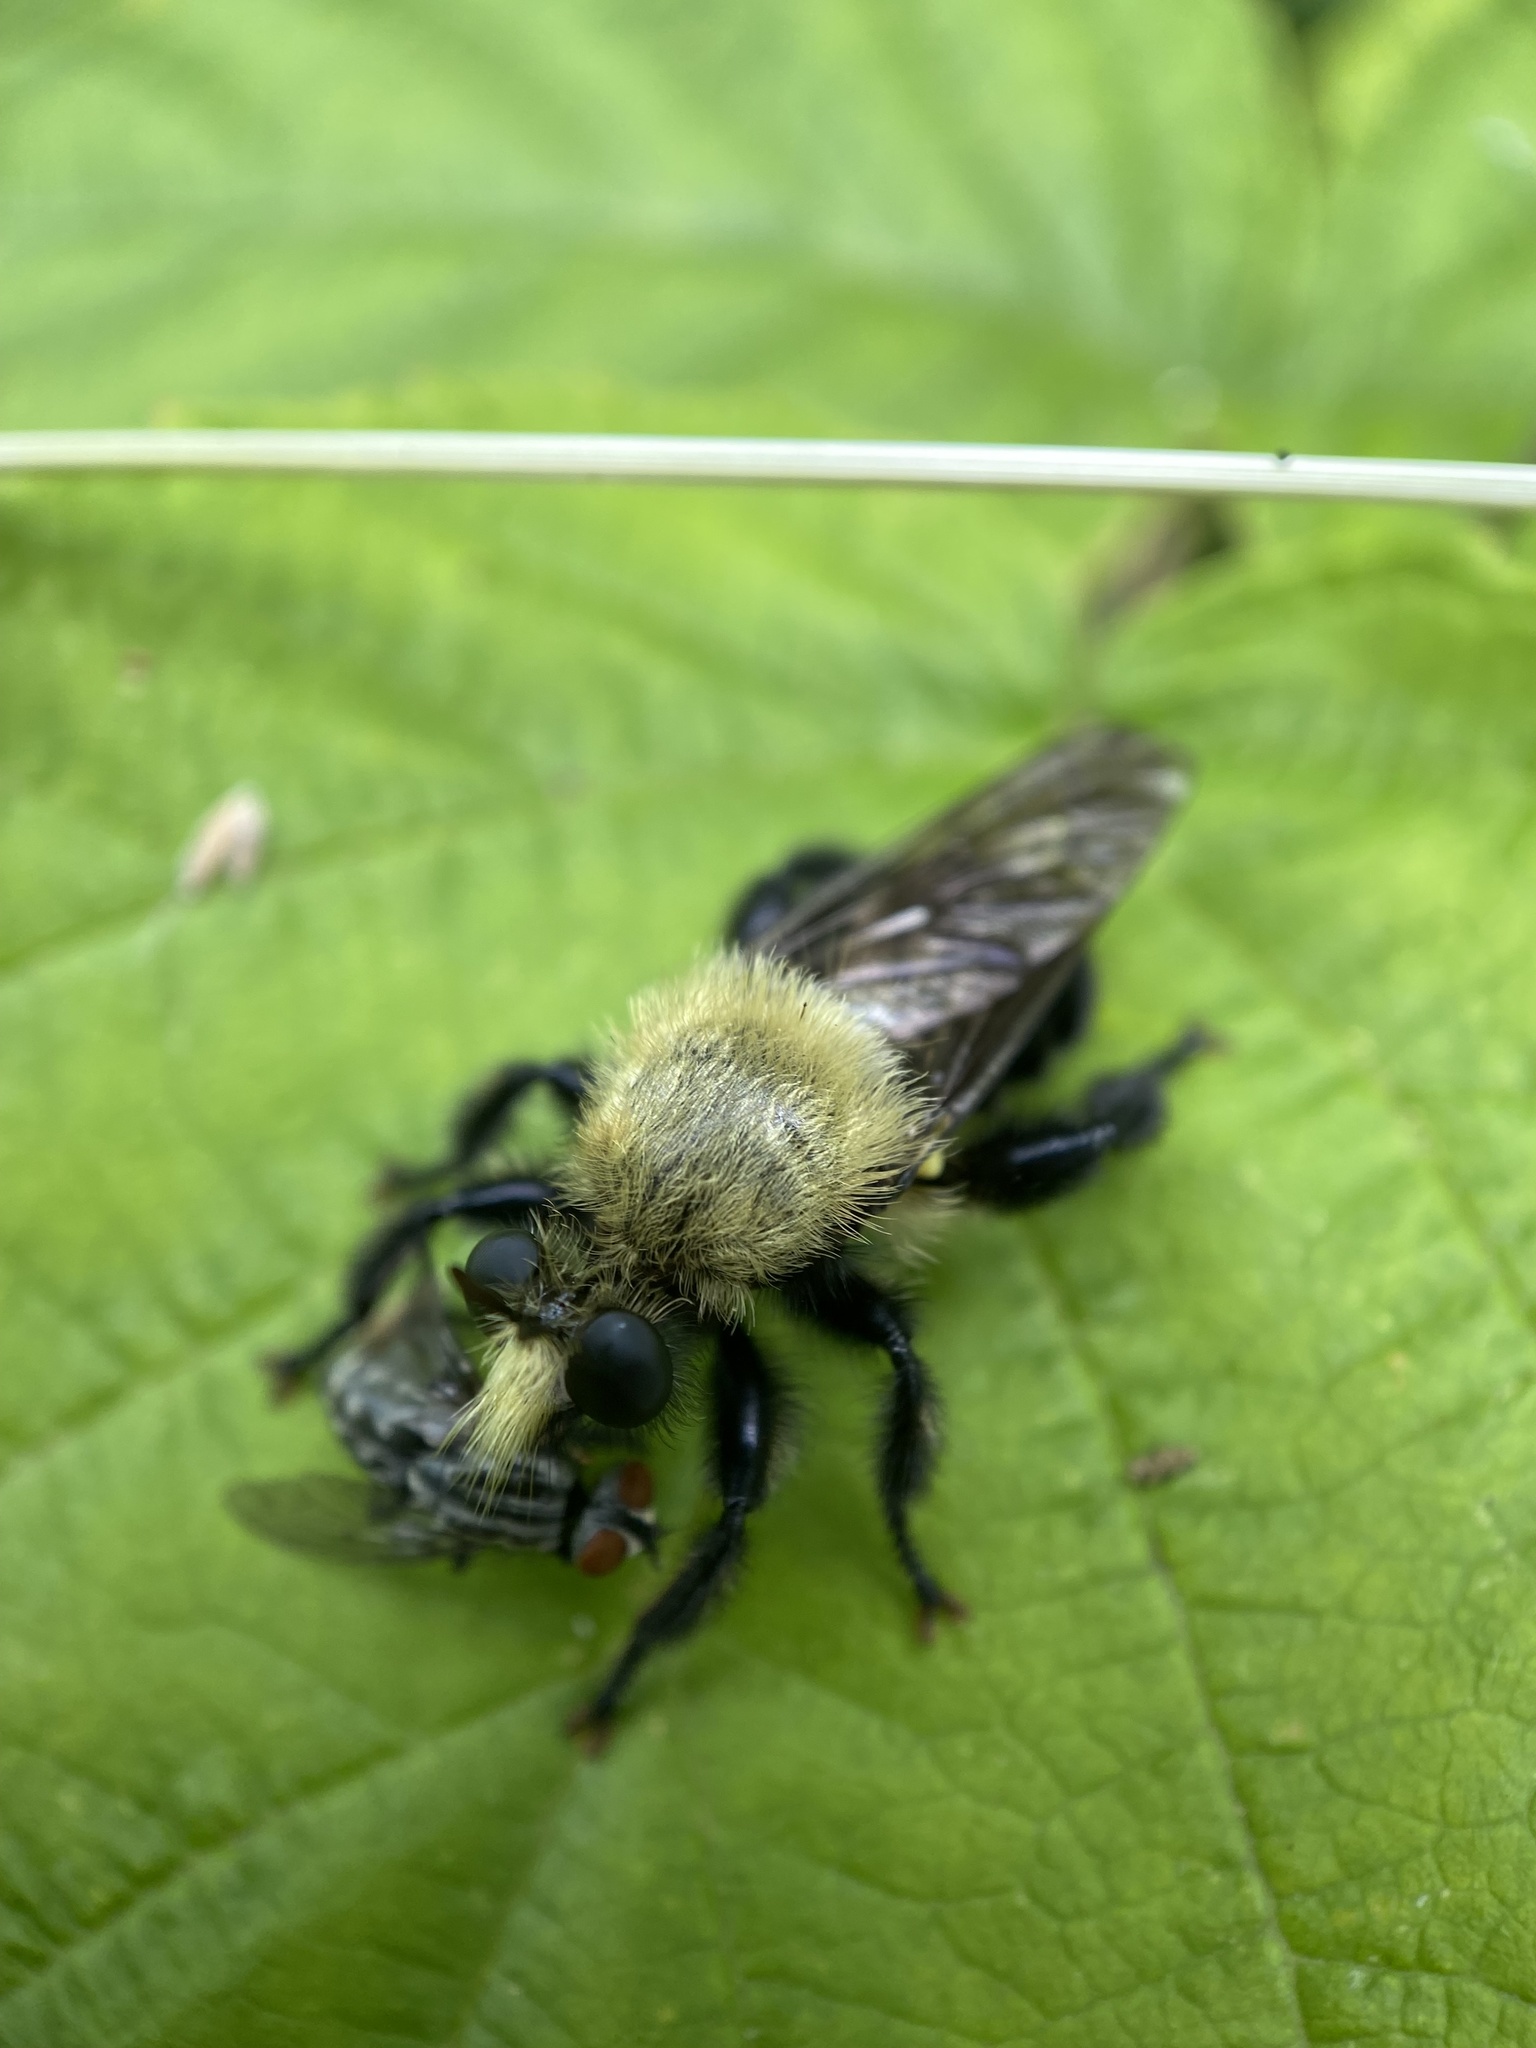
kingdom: Animalia
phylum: Arthropoda
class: Insecta
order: Diptera
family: Asilidae
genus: Laphria
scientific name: Laphria flavicollis
